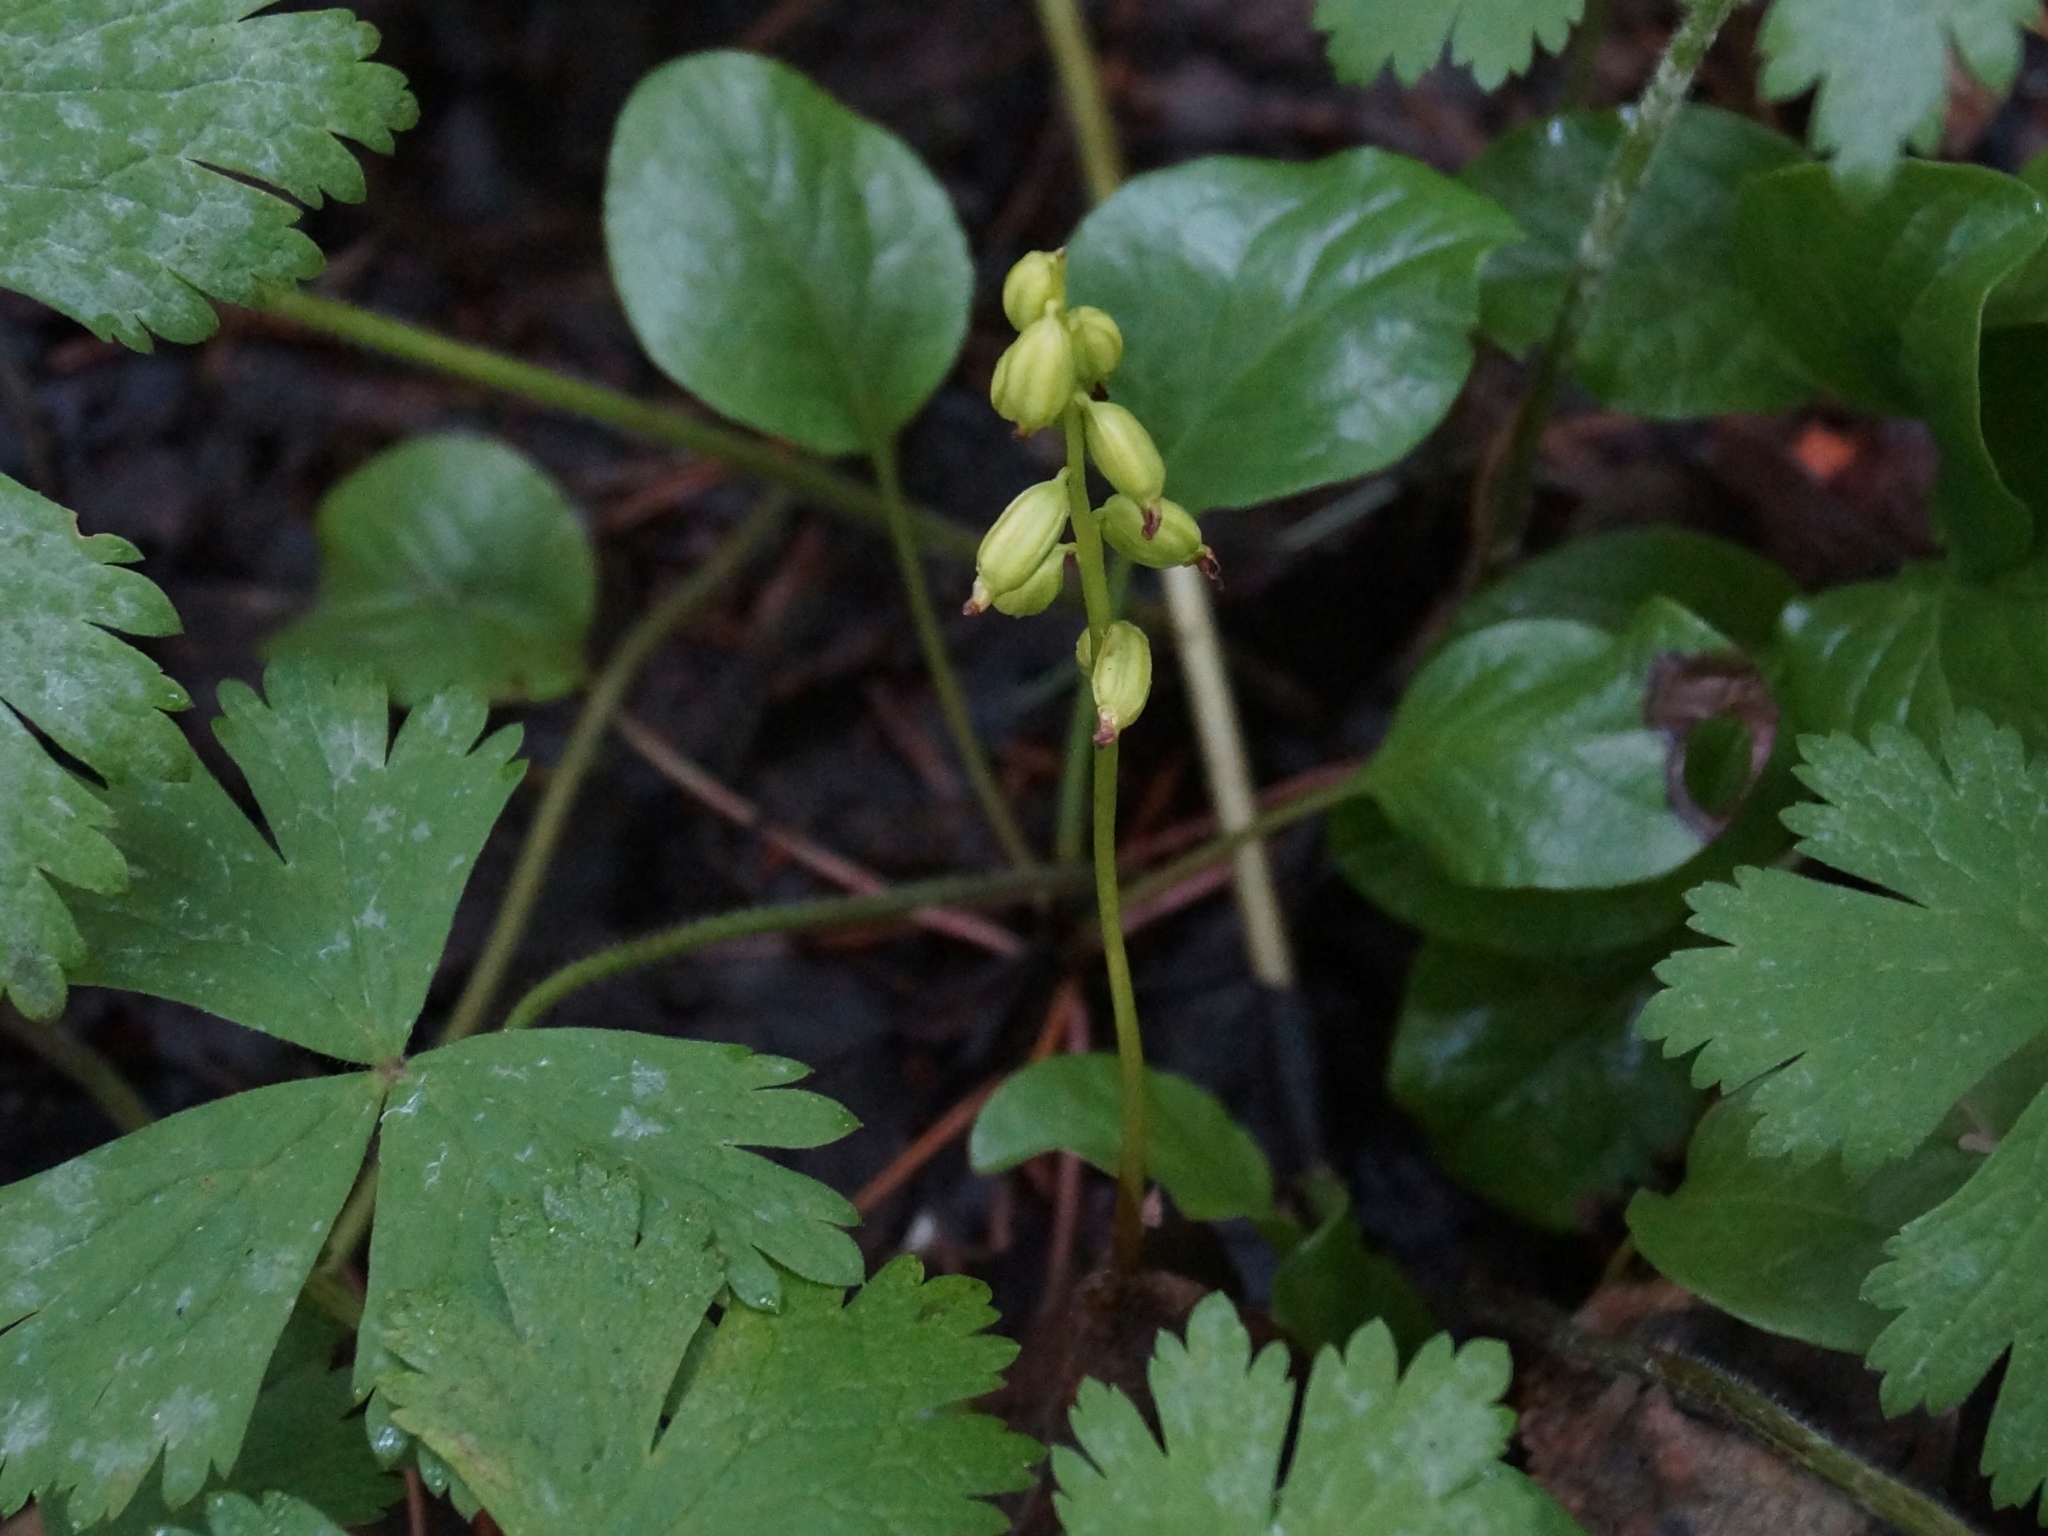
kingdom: Plantae
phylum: Tracheophyta
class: Liliopsida
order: Asparagales
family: Orchidaceae
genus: Corallorhiza
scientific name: Corallorhiza trifida
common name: Yellow coralroot
